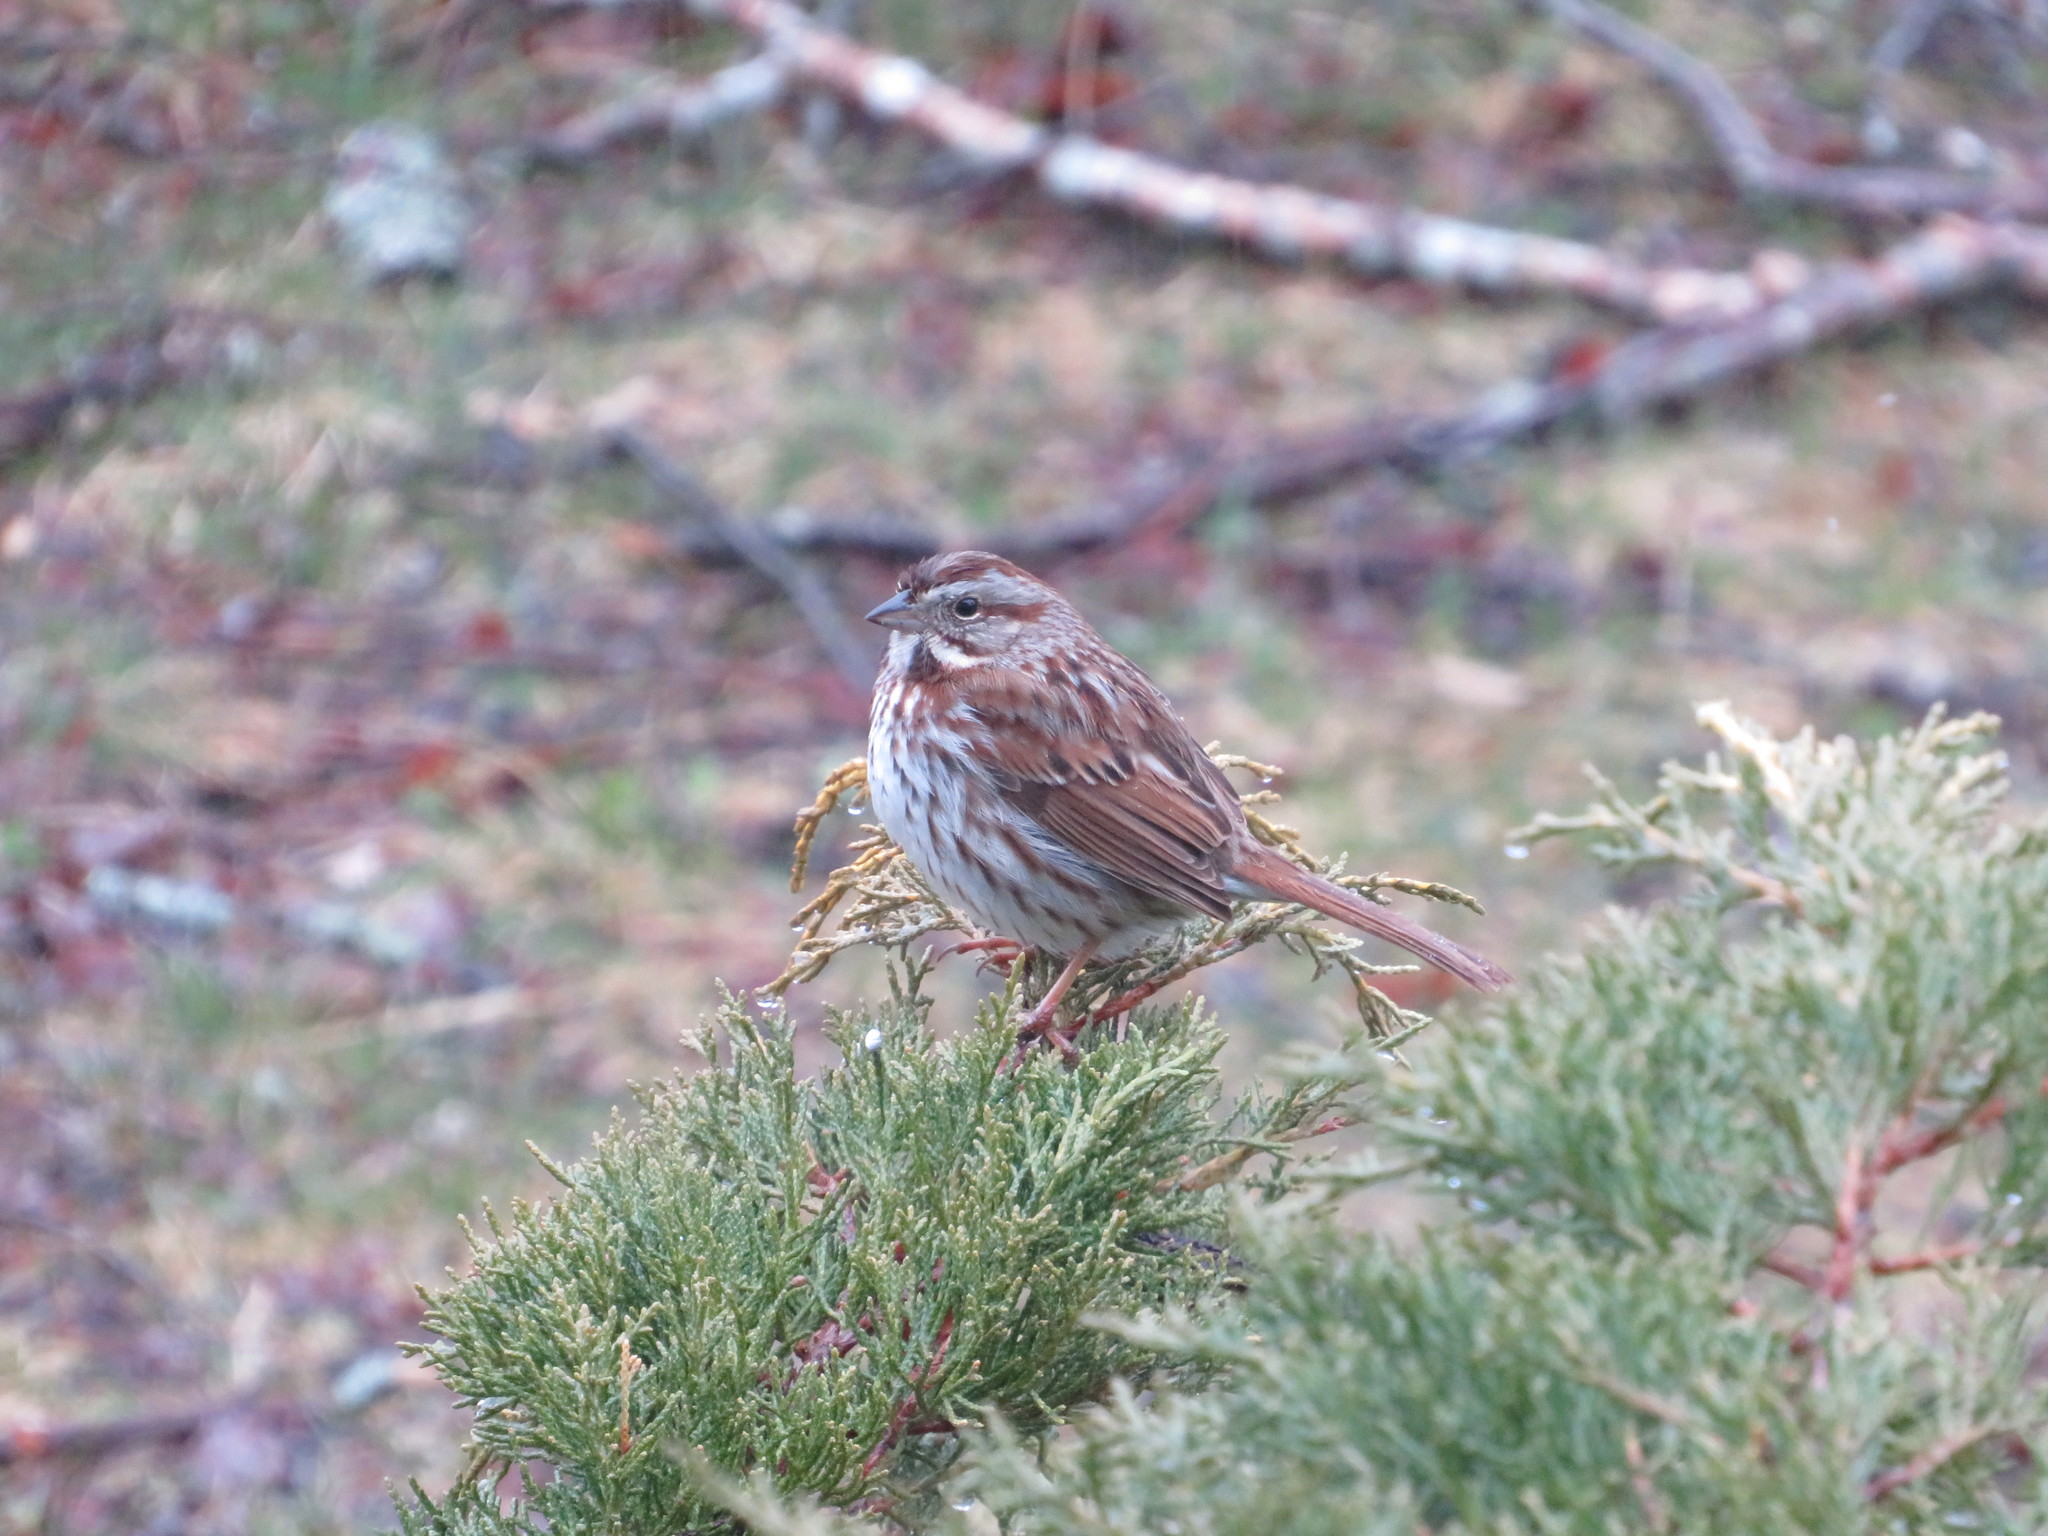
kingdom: Animalia
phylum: Chordata
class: Aves
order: Passeriformes
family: Passerellidae
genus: Melospiza
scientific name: Melospiza melodia
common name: Song sparrow
